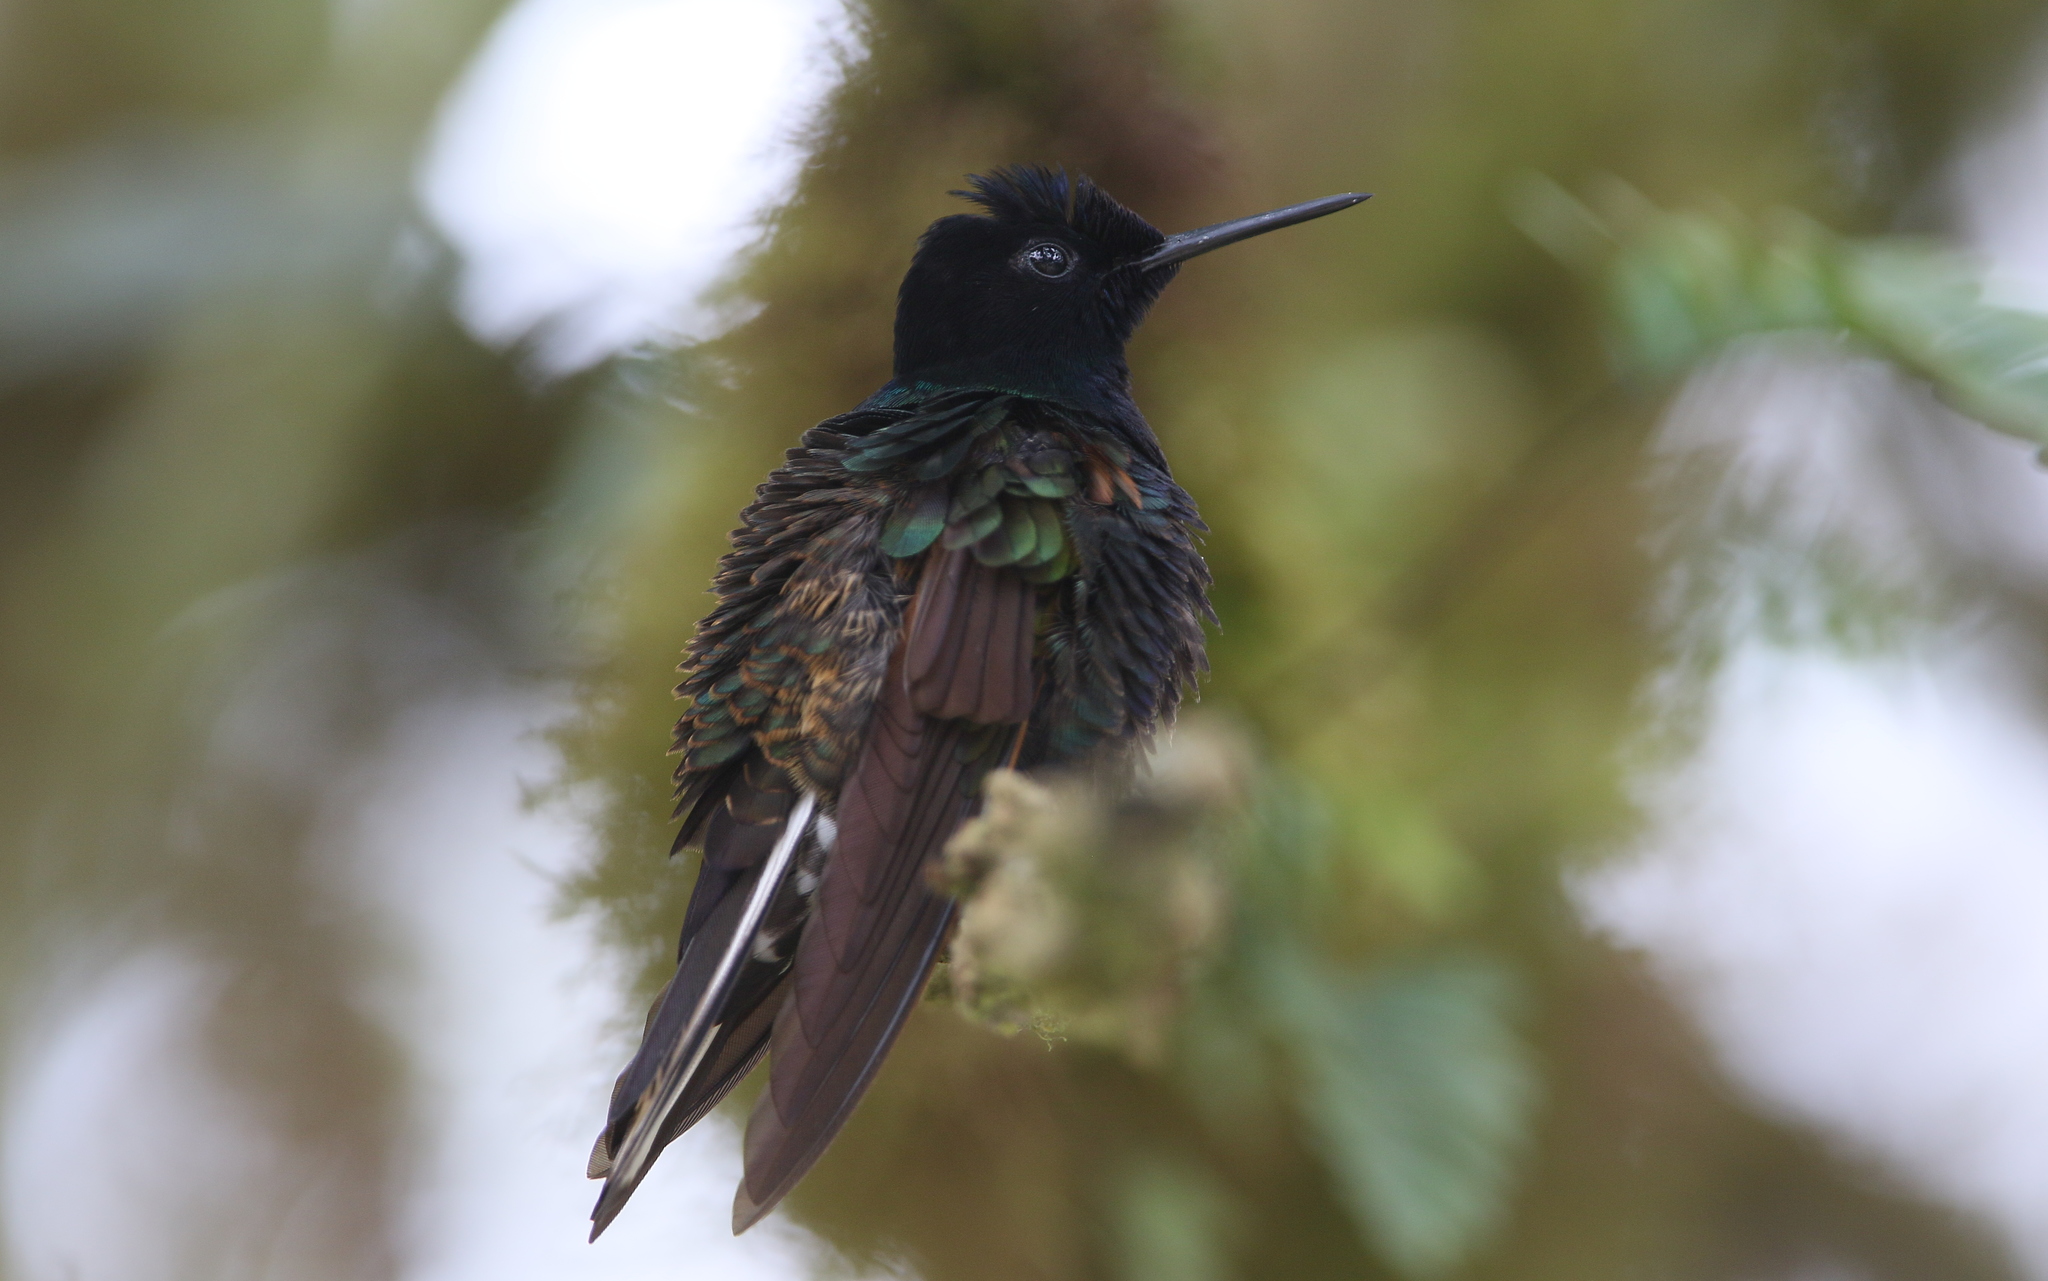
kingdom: Animalia
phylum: Chordata
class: Aves
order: Apodiformes
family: Trochilidae
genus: Boissonneaua
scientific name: Boissonneaua jardini
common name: Velvet-purple coronet
